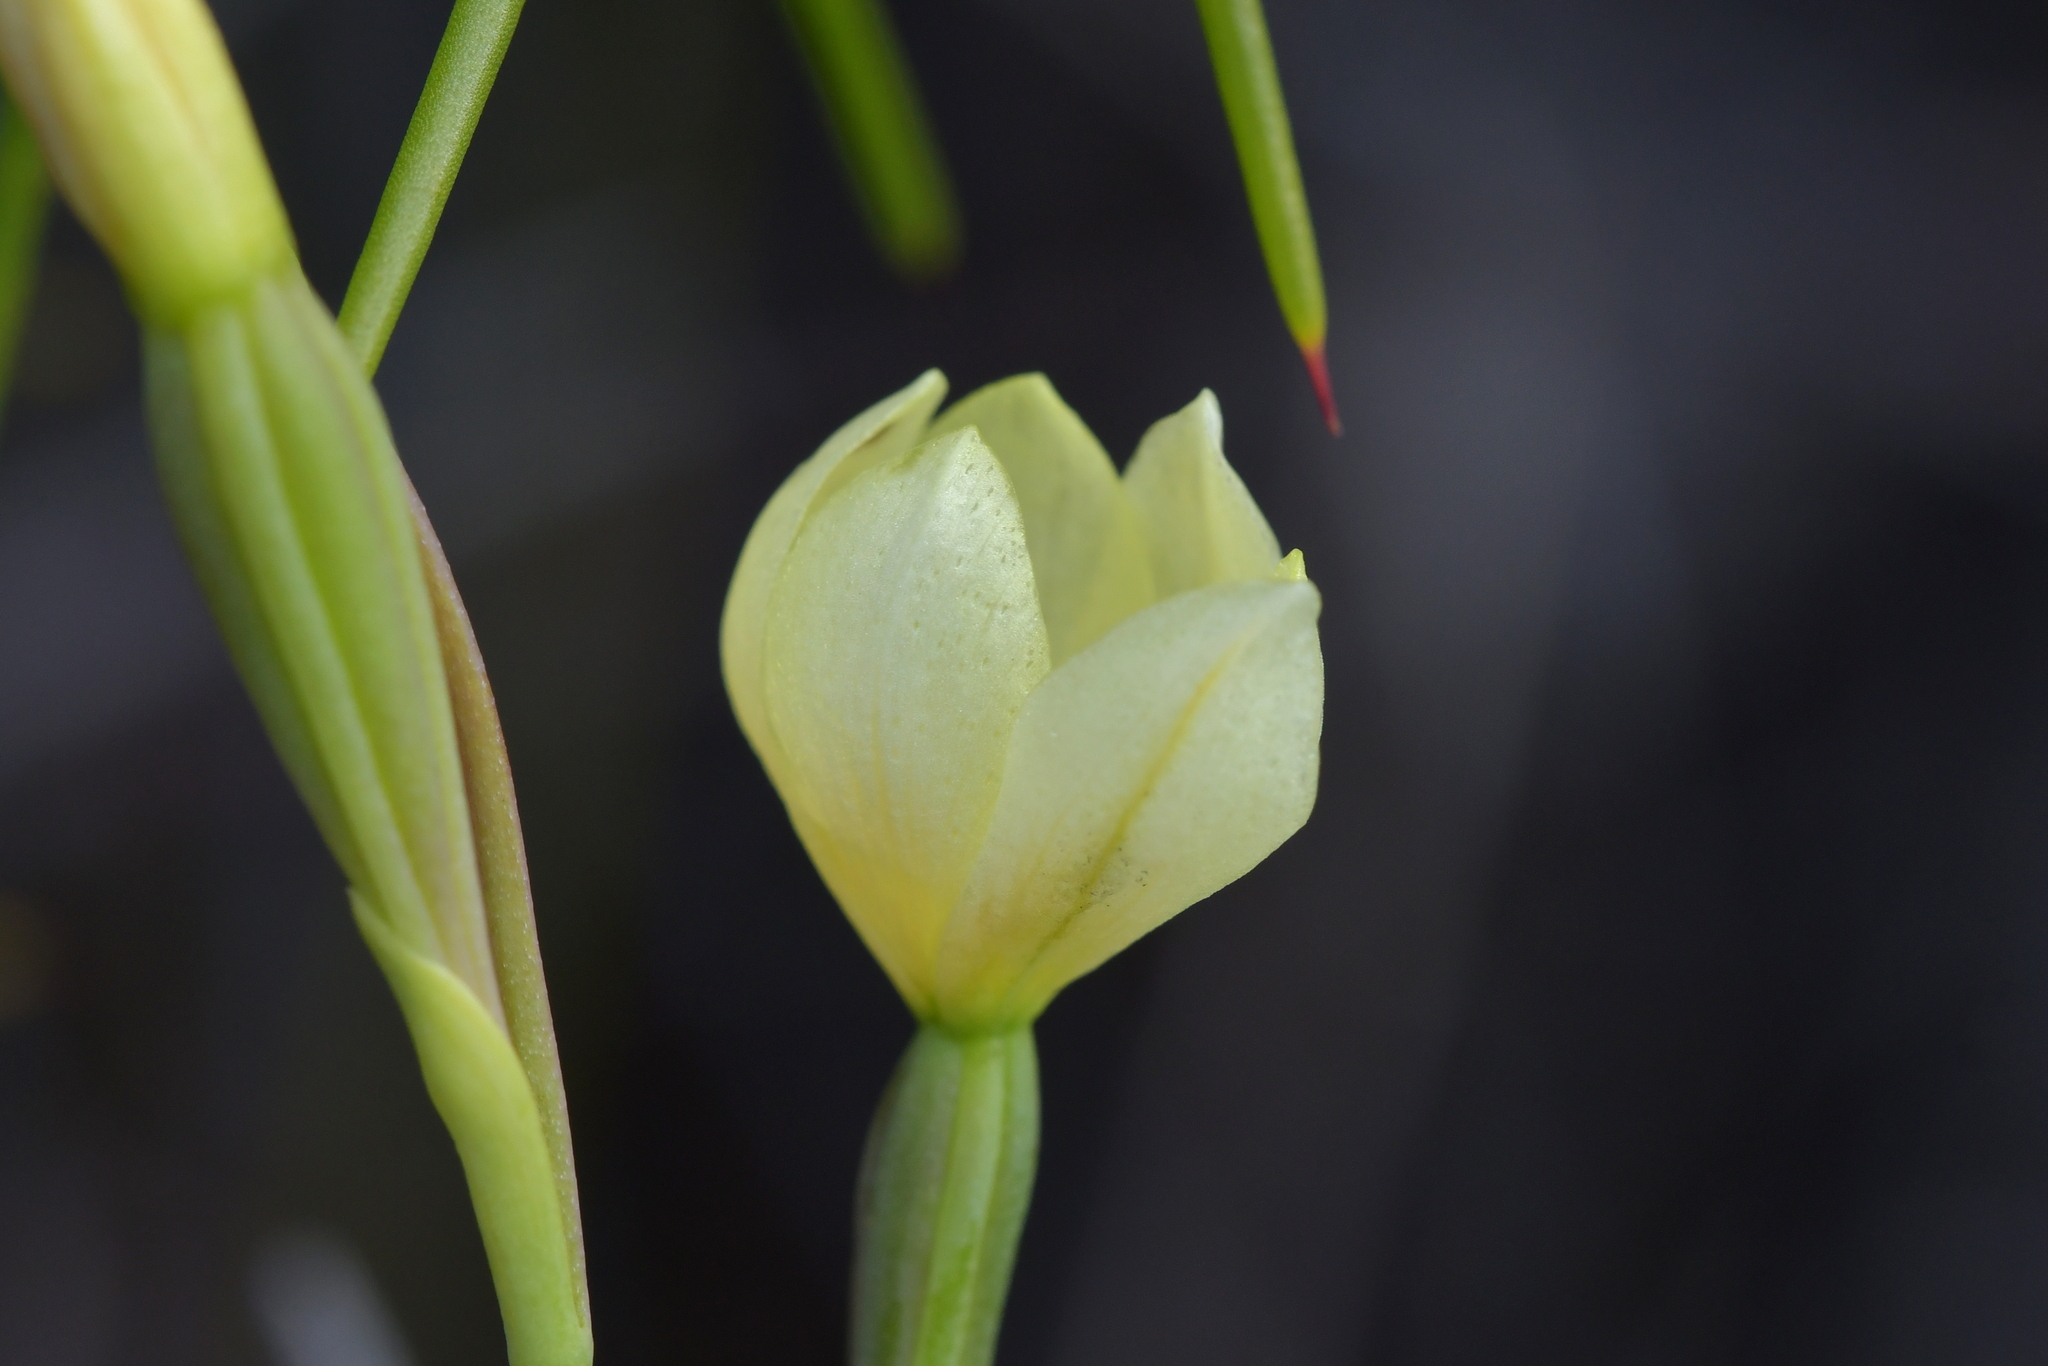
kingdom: Plantae
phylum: Tracheophyta
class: Liliopsida
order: Asparagales
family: Orchidaceae
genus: Thelymitra
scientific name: Thelymitra carnea
